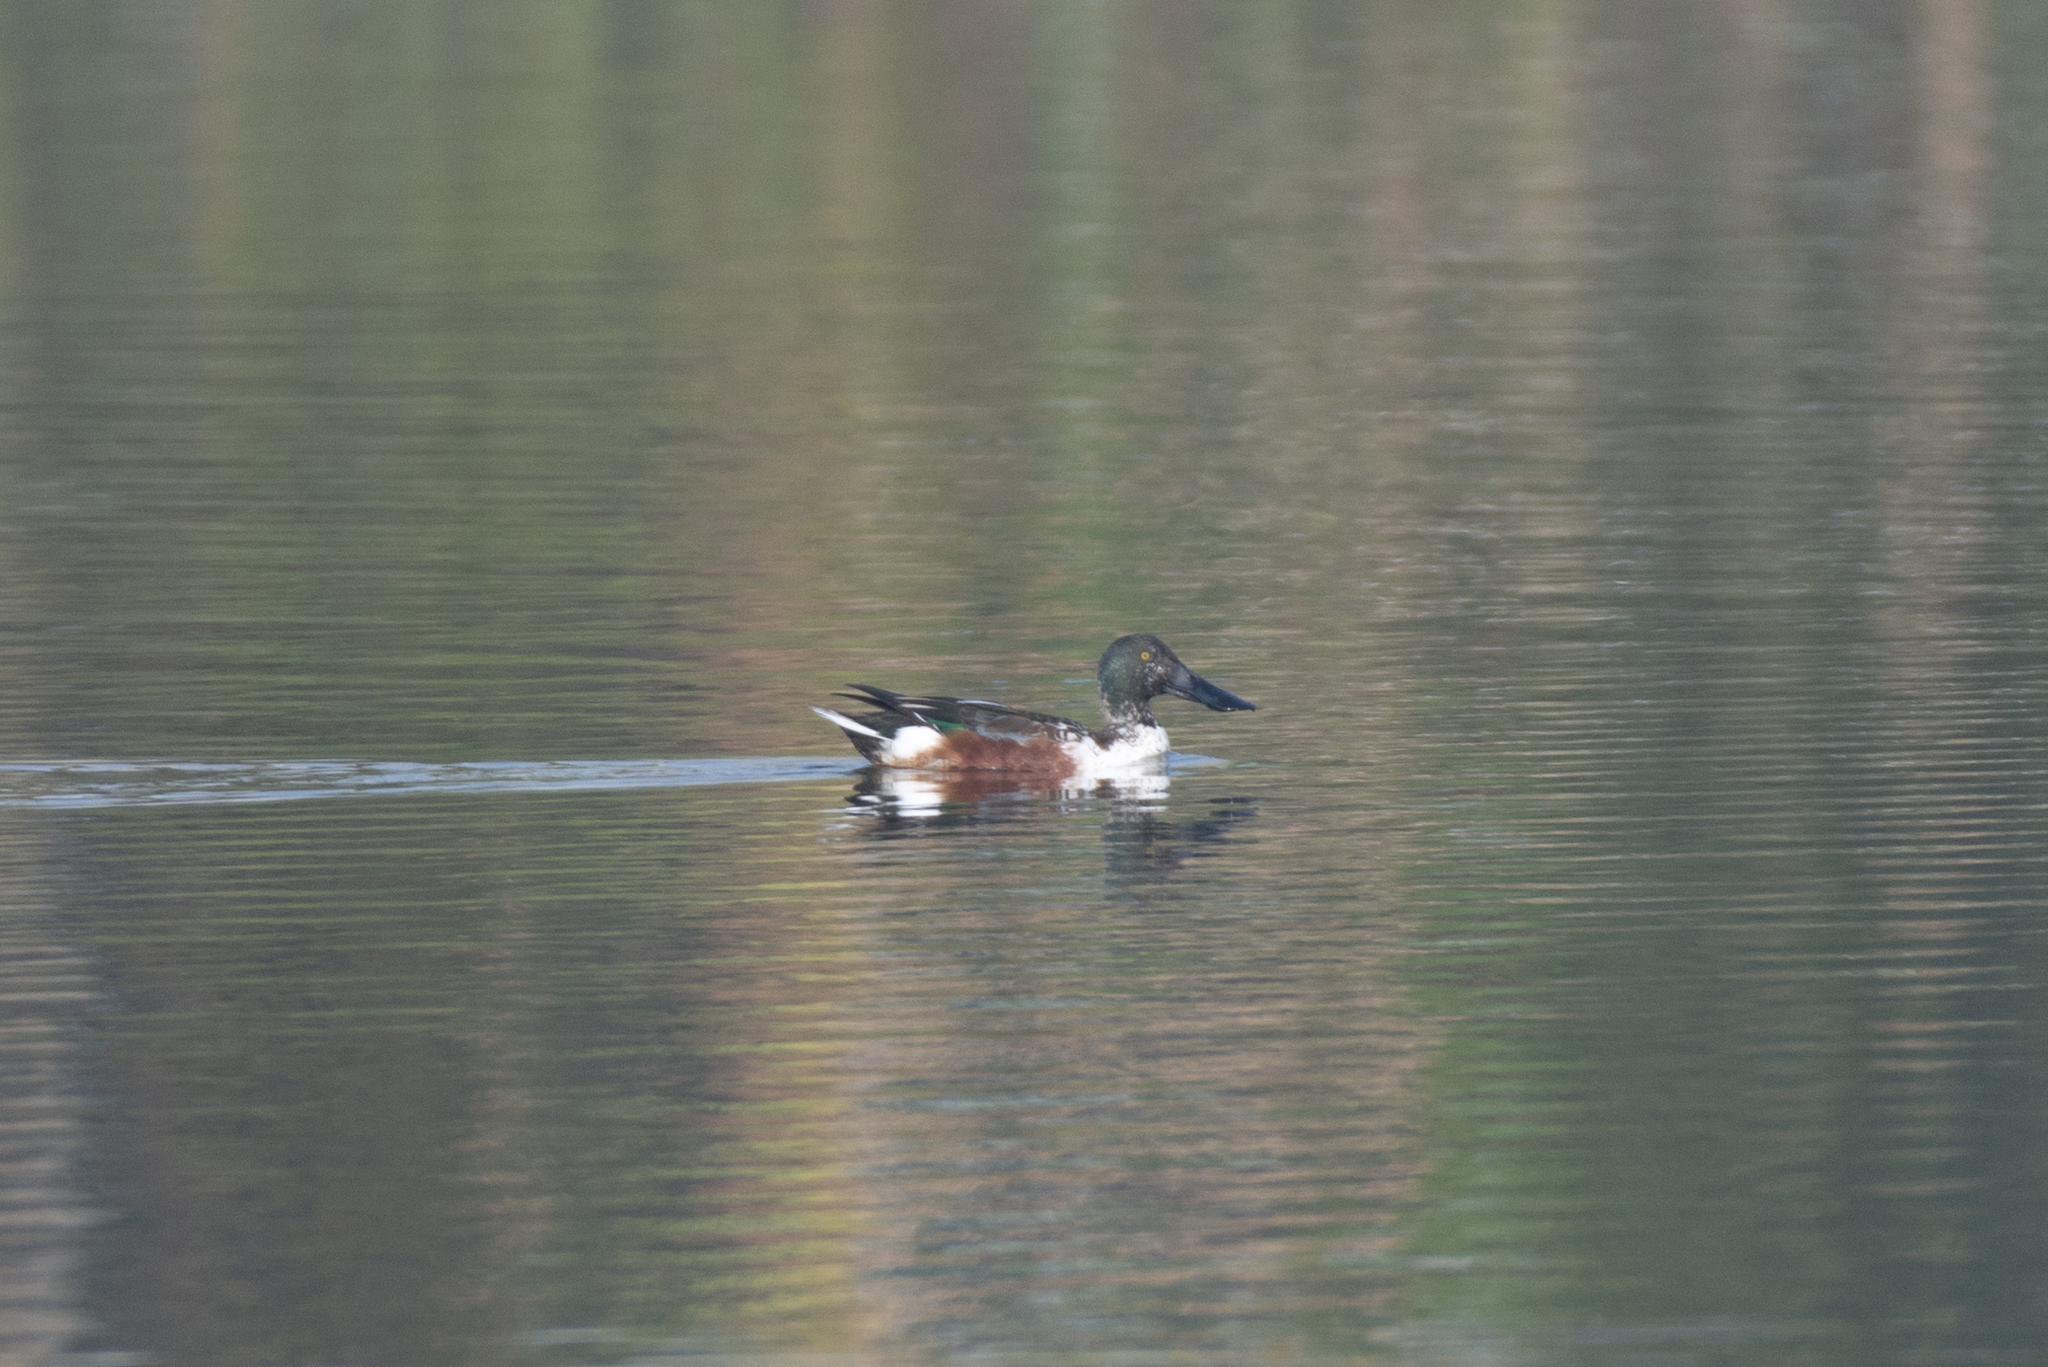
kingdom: Animalia
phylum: Chordata
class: Aves
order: Anseriformes
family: Anatidae
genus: Spatula
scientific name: Spatula clypeata
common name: Northern shoveler
